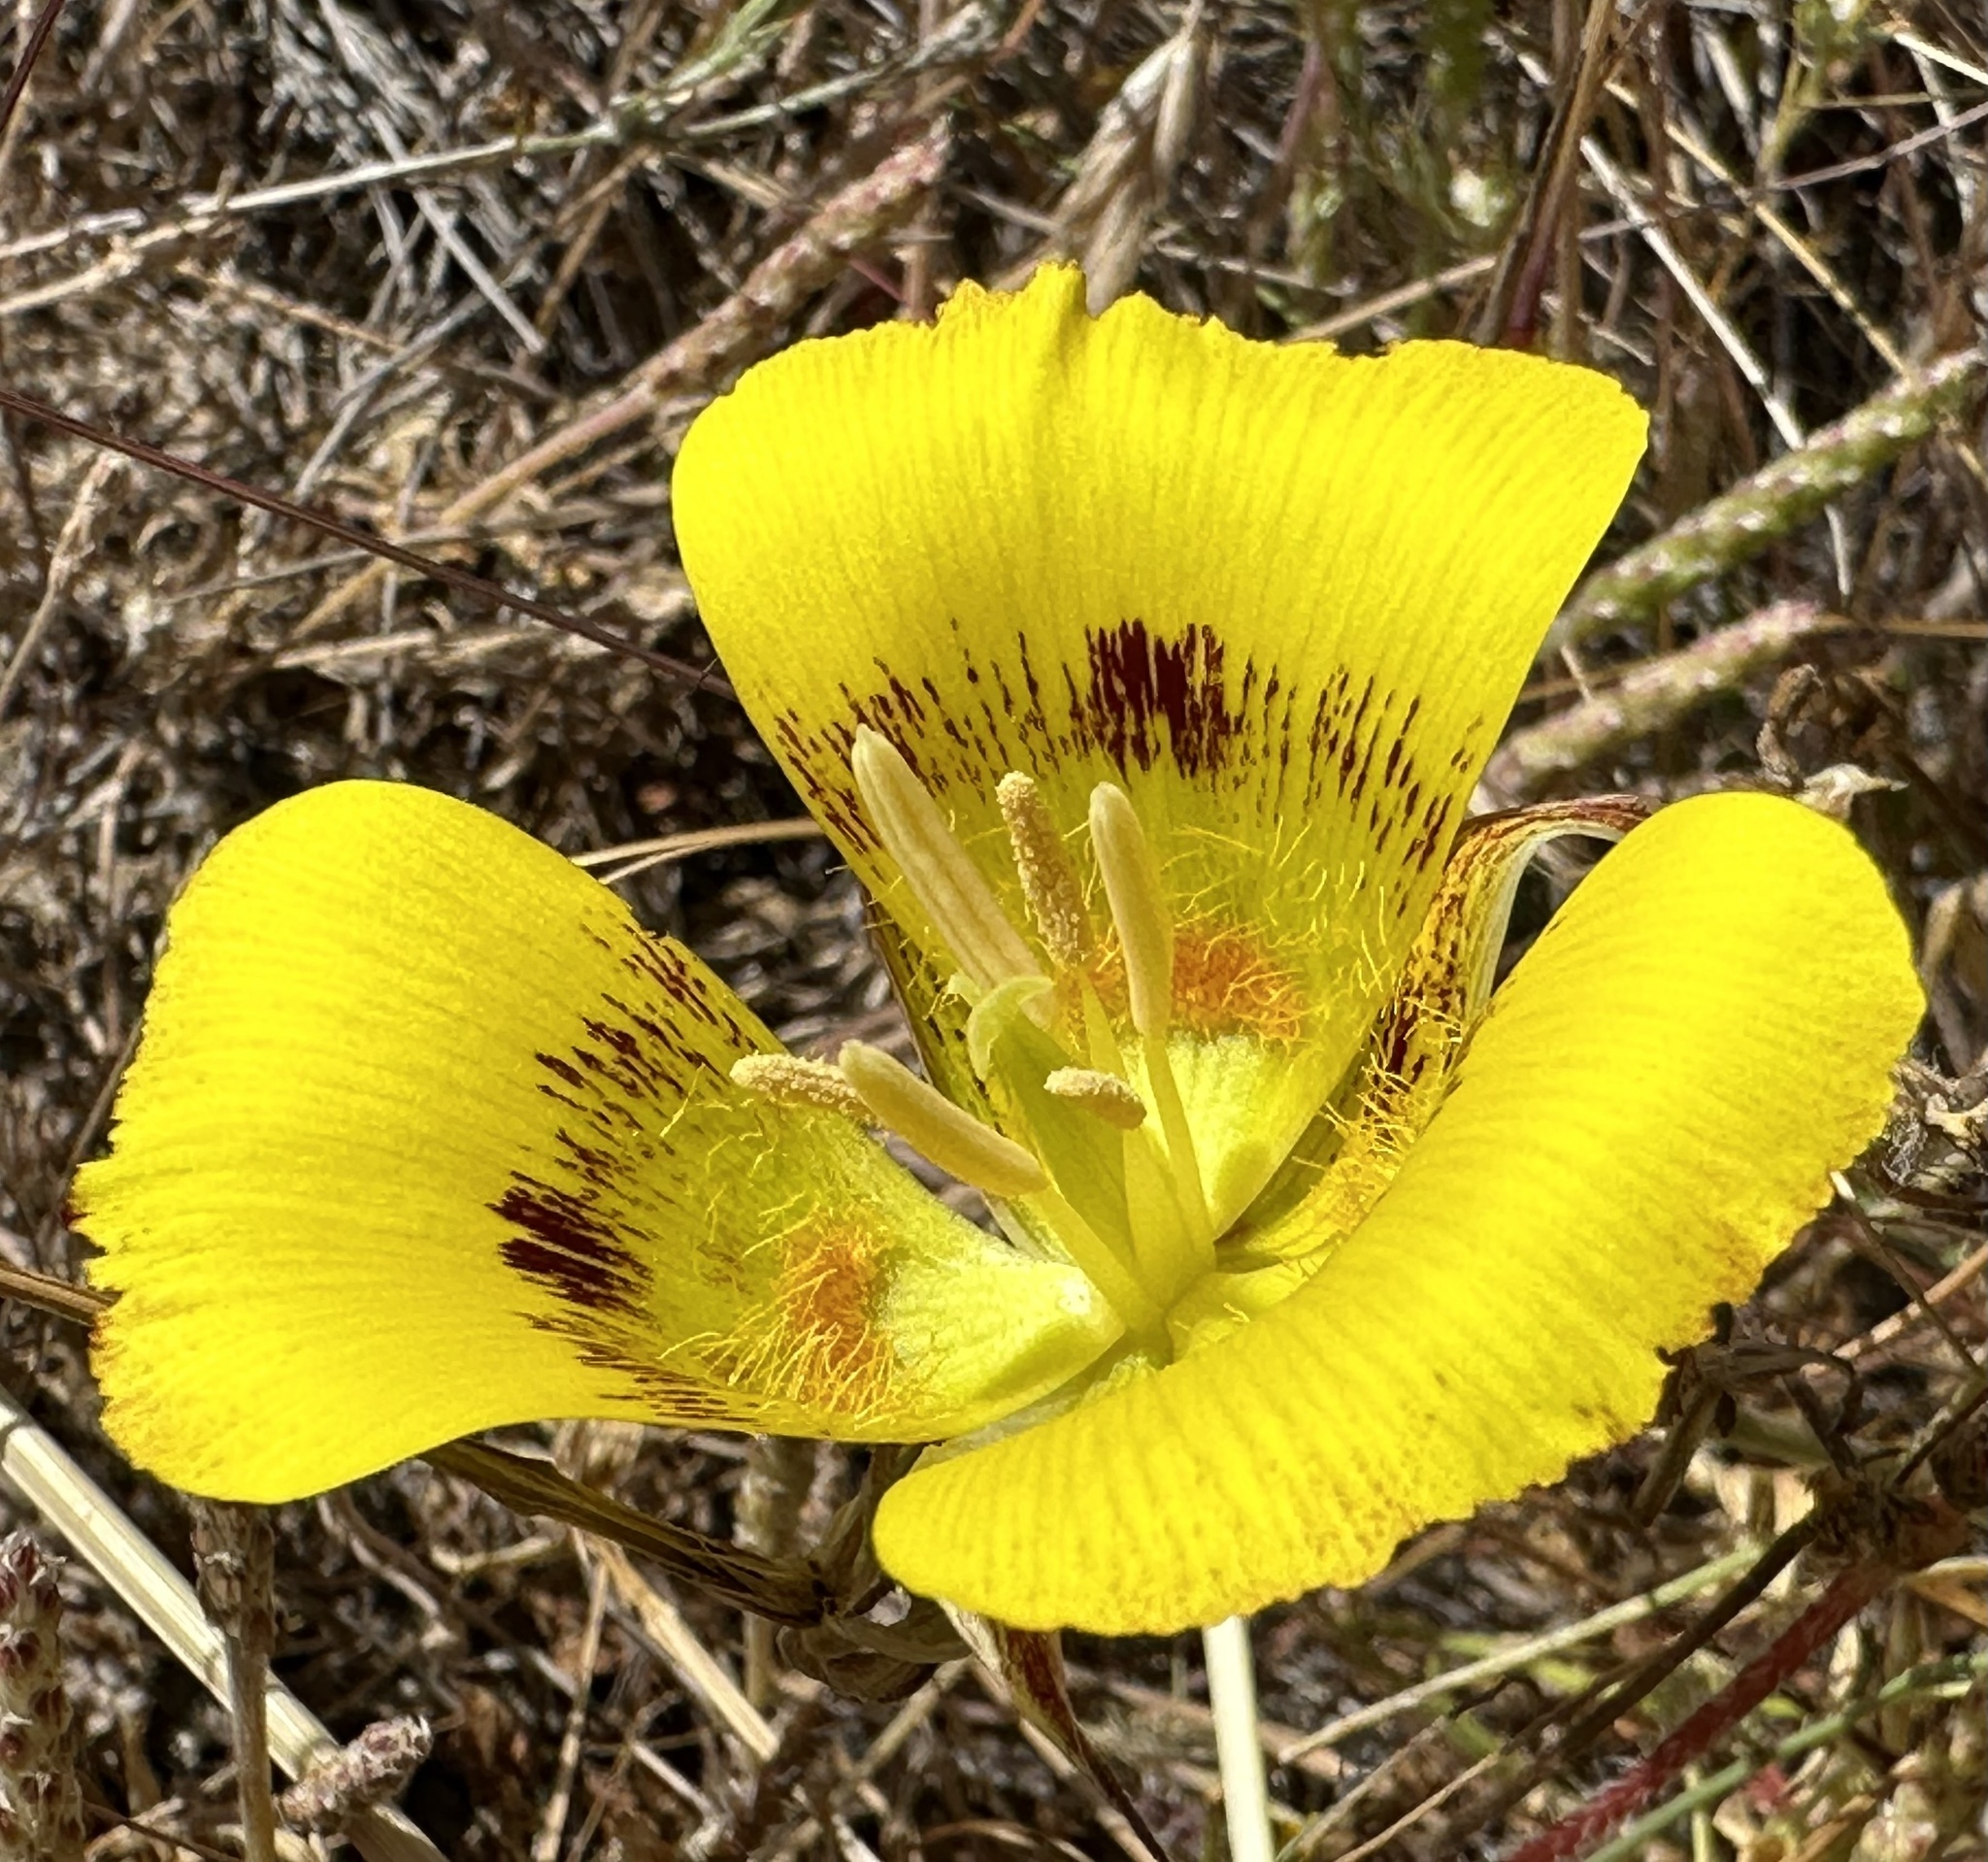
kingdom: Plantae
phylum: Tracheophyta
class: Liliopsida
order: Liliales
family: Liliaceae
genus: Calochortus
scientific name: Calochortus luteus
